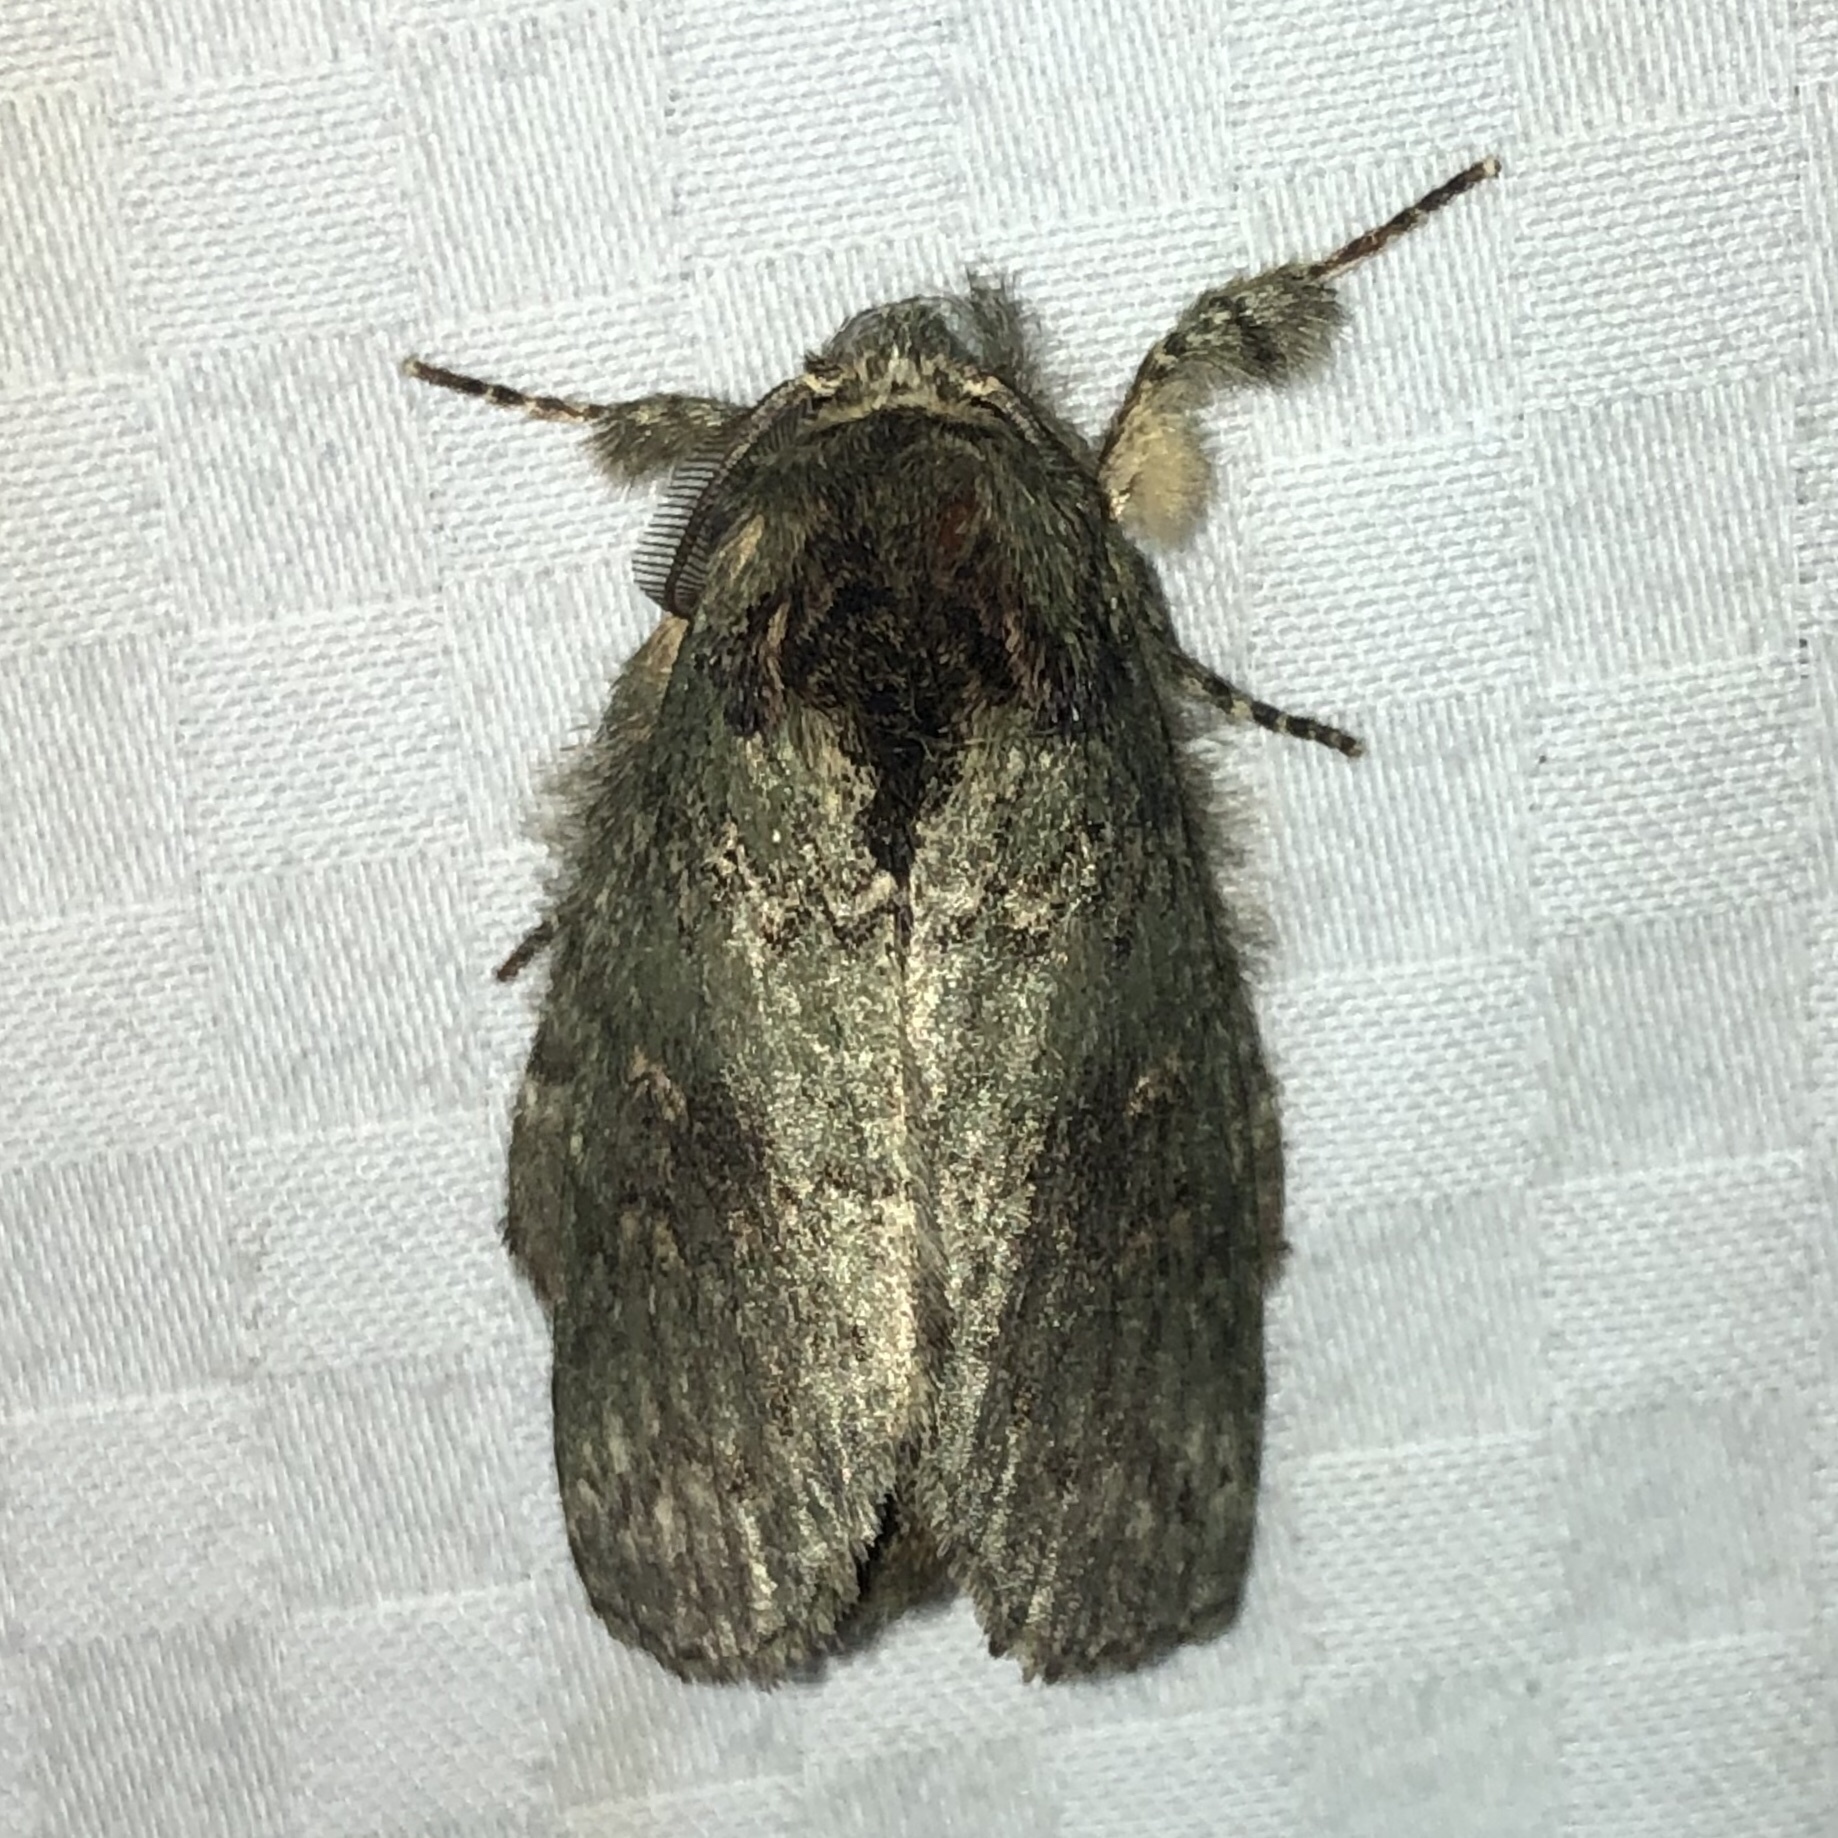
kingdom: Animalia
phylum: Arthropoda
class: Insecta
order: Lepidoptera
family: Notodontidae
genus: Disphragis
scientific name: Disphragis Cecrita biundata
